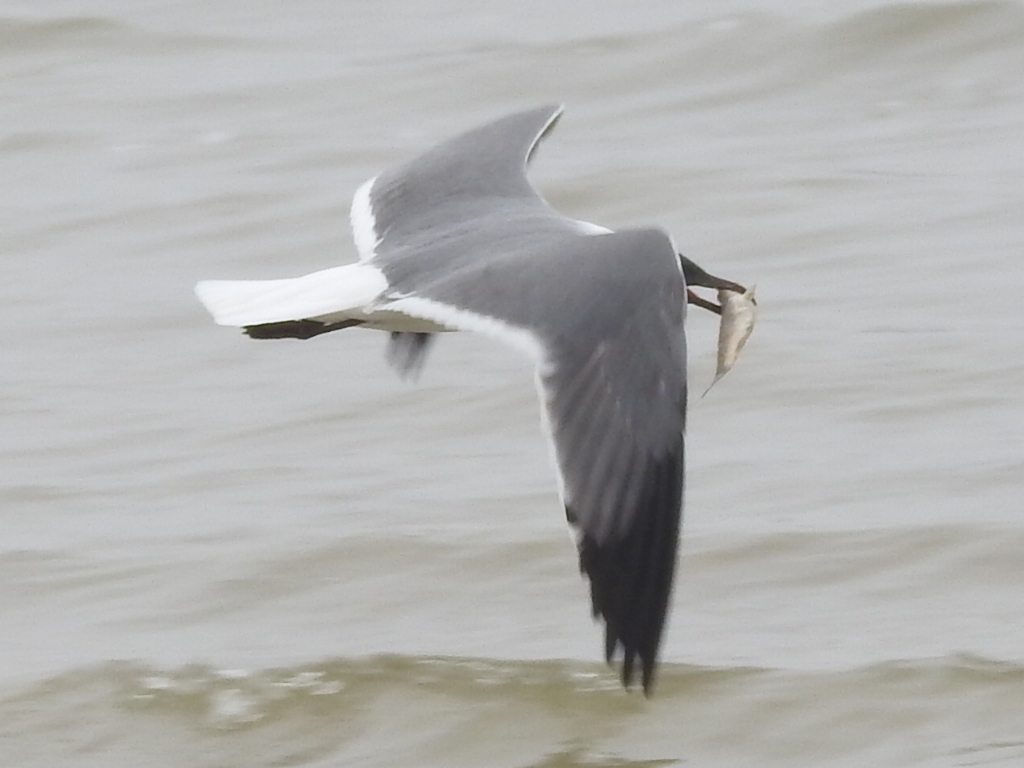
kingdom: Animalia
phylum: Chordata
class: Aves
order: Charadriiformes
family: Laridae
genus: Leucophaeus
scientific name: Leucophaeus atricilla
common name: Laughing gull
